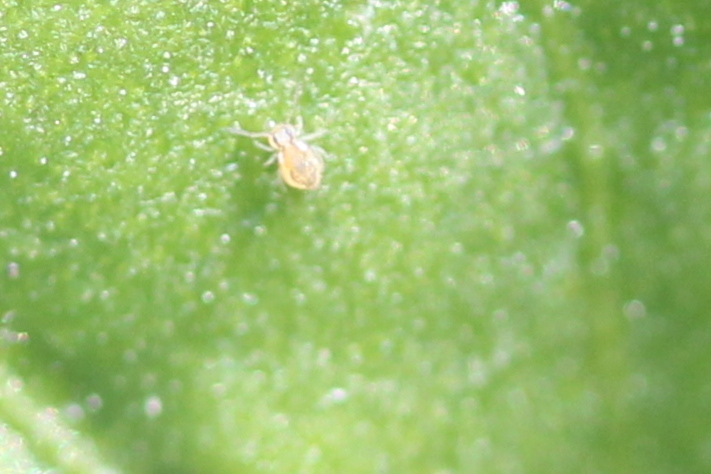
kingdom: Animalia
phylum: Arthropoda
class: Collembola
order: Symphypleona
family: Bourletiellidae
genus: Bourletiella
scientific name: Bourletiella rustica
